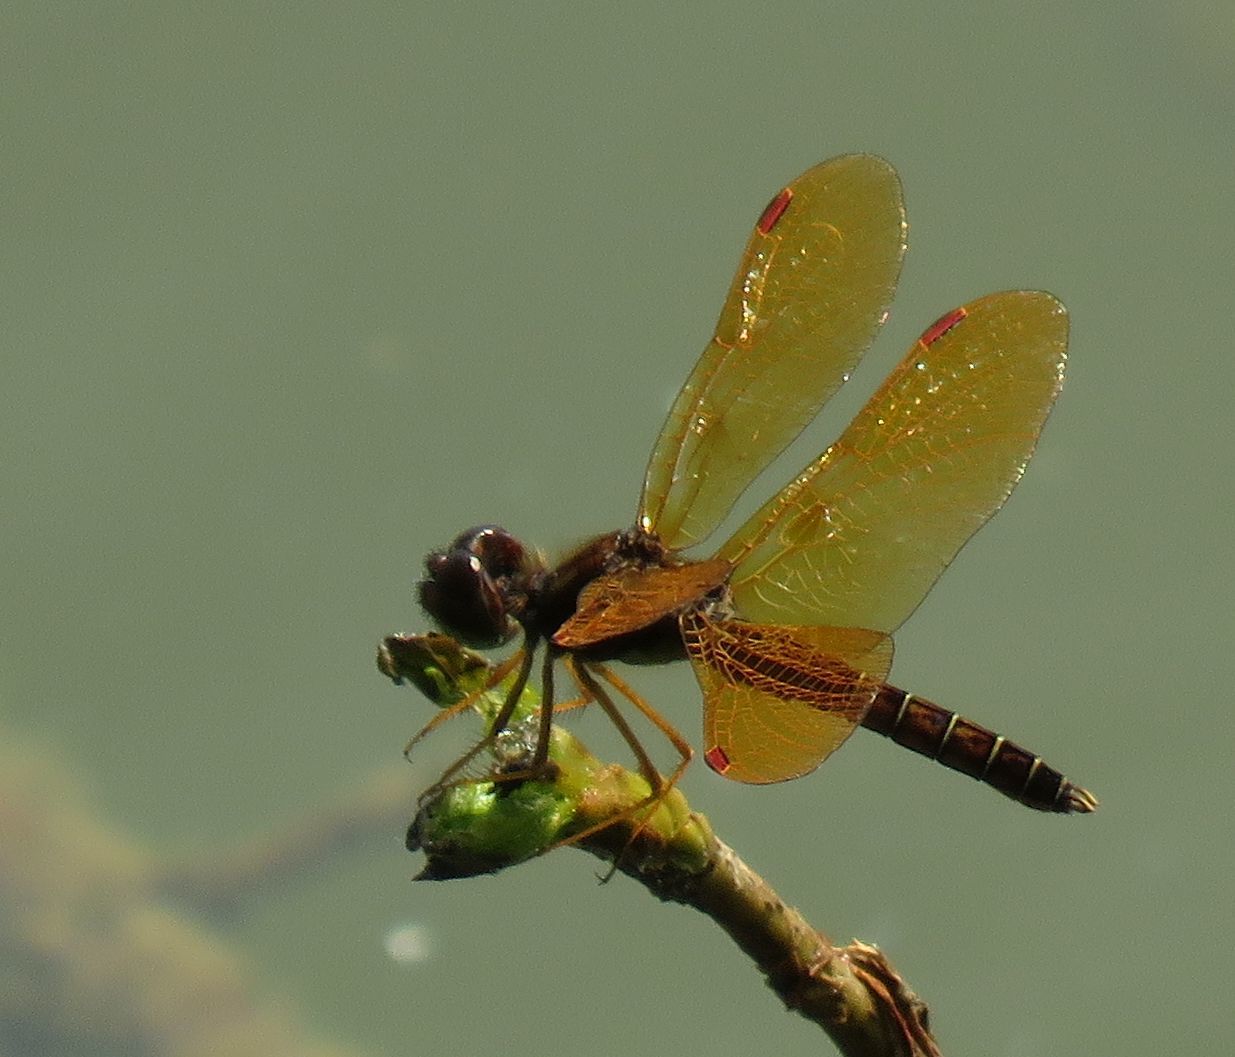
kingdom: Animalia
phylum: Arthropoda
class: Insecta
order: Odonata
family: Libellulidae
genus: Perithemis
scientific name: Perithemis tenera
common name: Eastern amberwing
